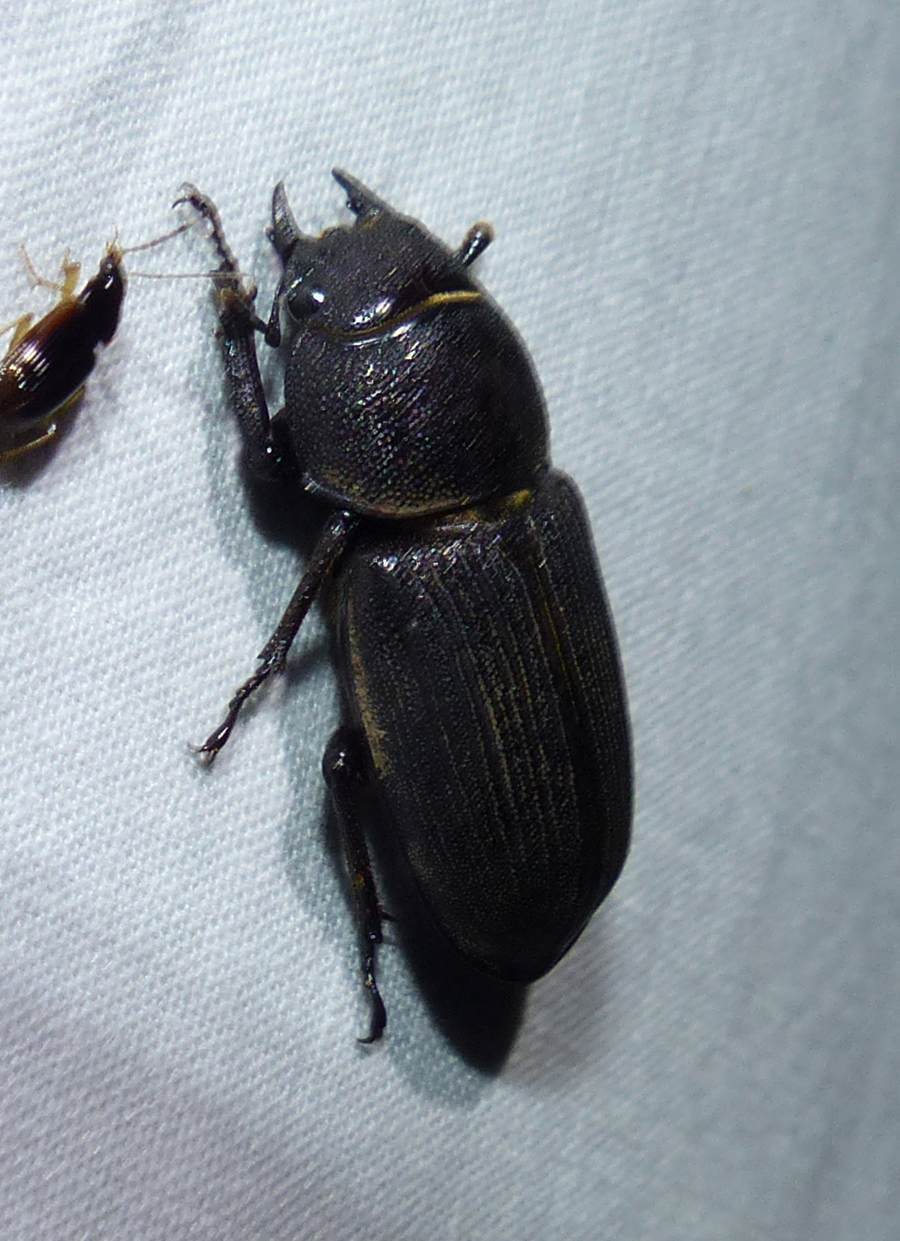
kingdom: Animalia
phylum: Arthropoda
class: Insecta
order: Coleoptera
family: Lucanidae
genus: Dorcus
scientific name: Dorcus parallelus
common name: Antelope beetle
